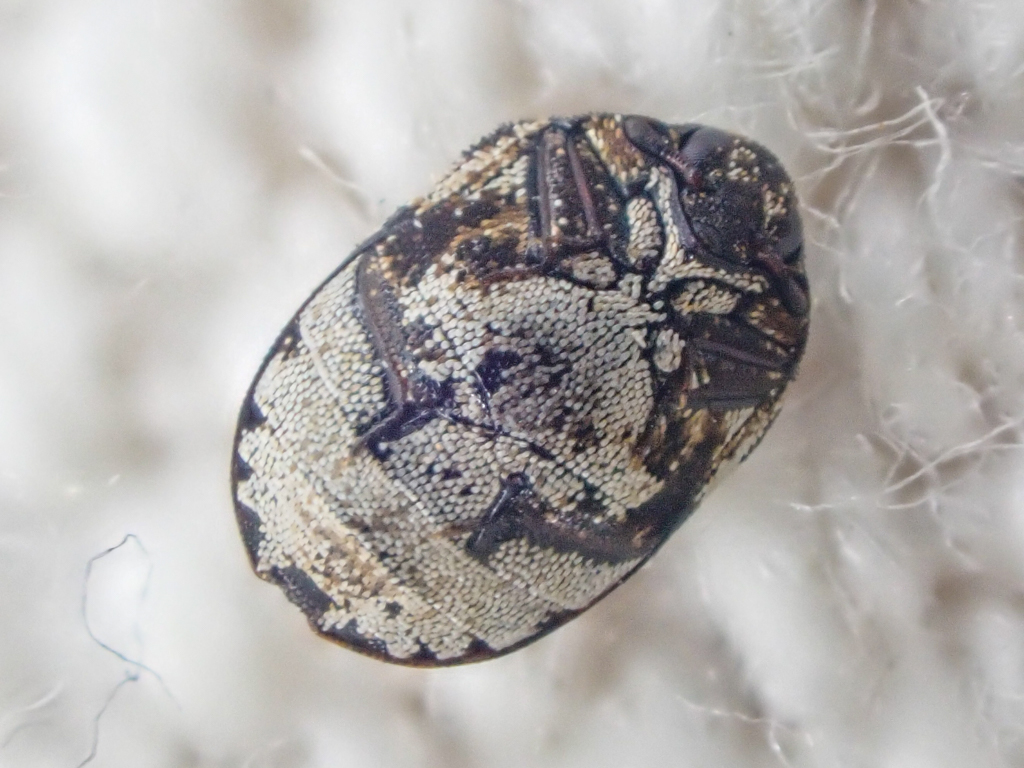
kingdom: Animalia
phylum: Arthropoda
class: Insecta
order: Coleoptera
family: Dermestidae
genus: Anthrenus
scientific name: Anthrenus sophonisba
